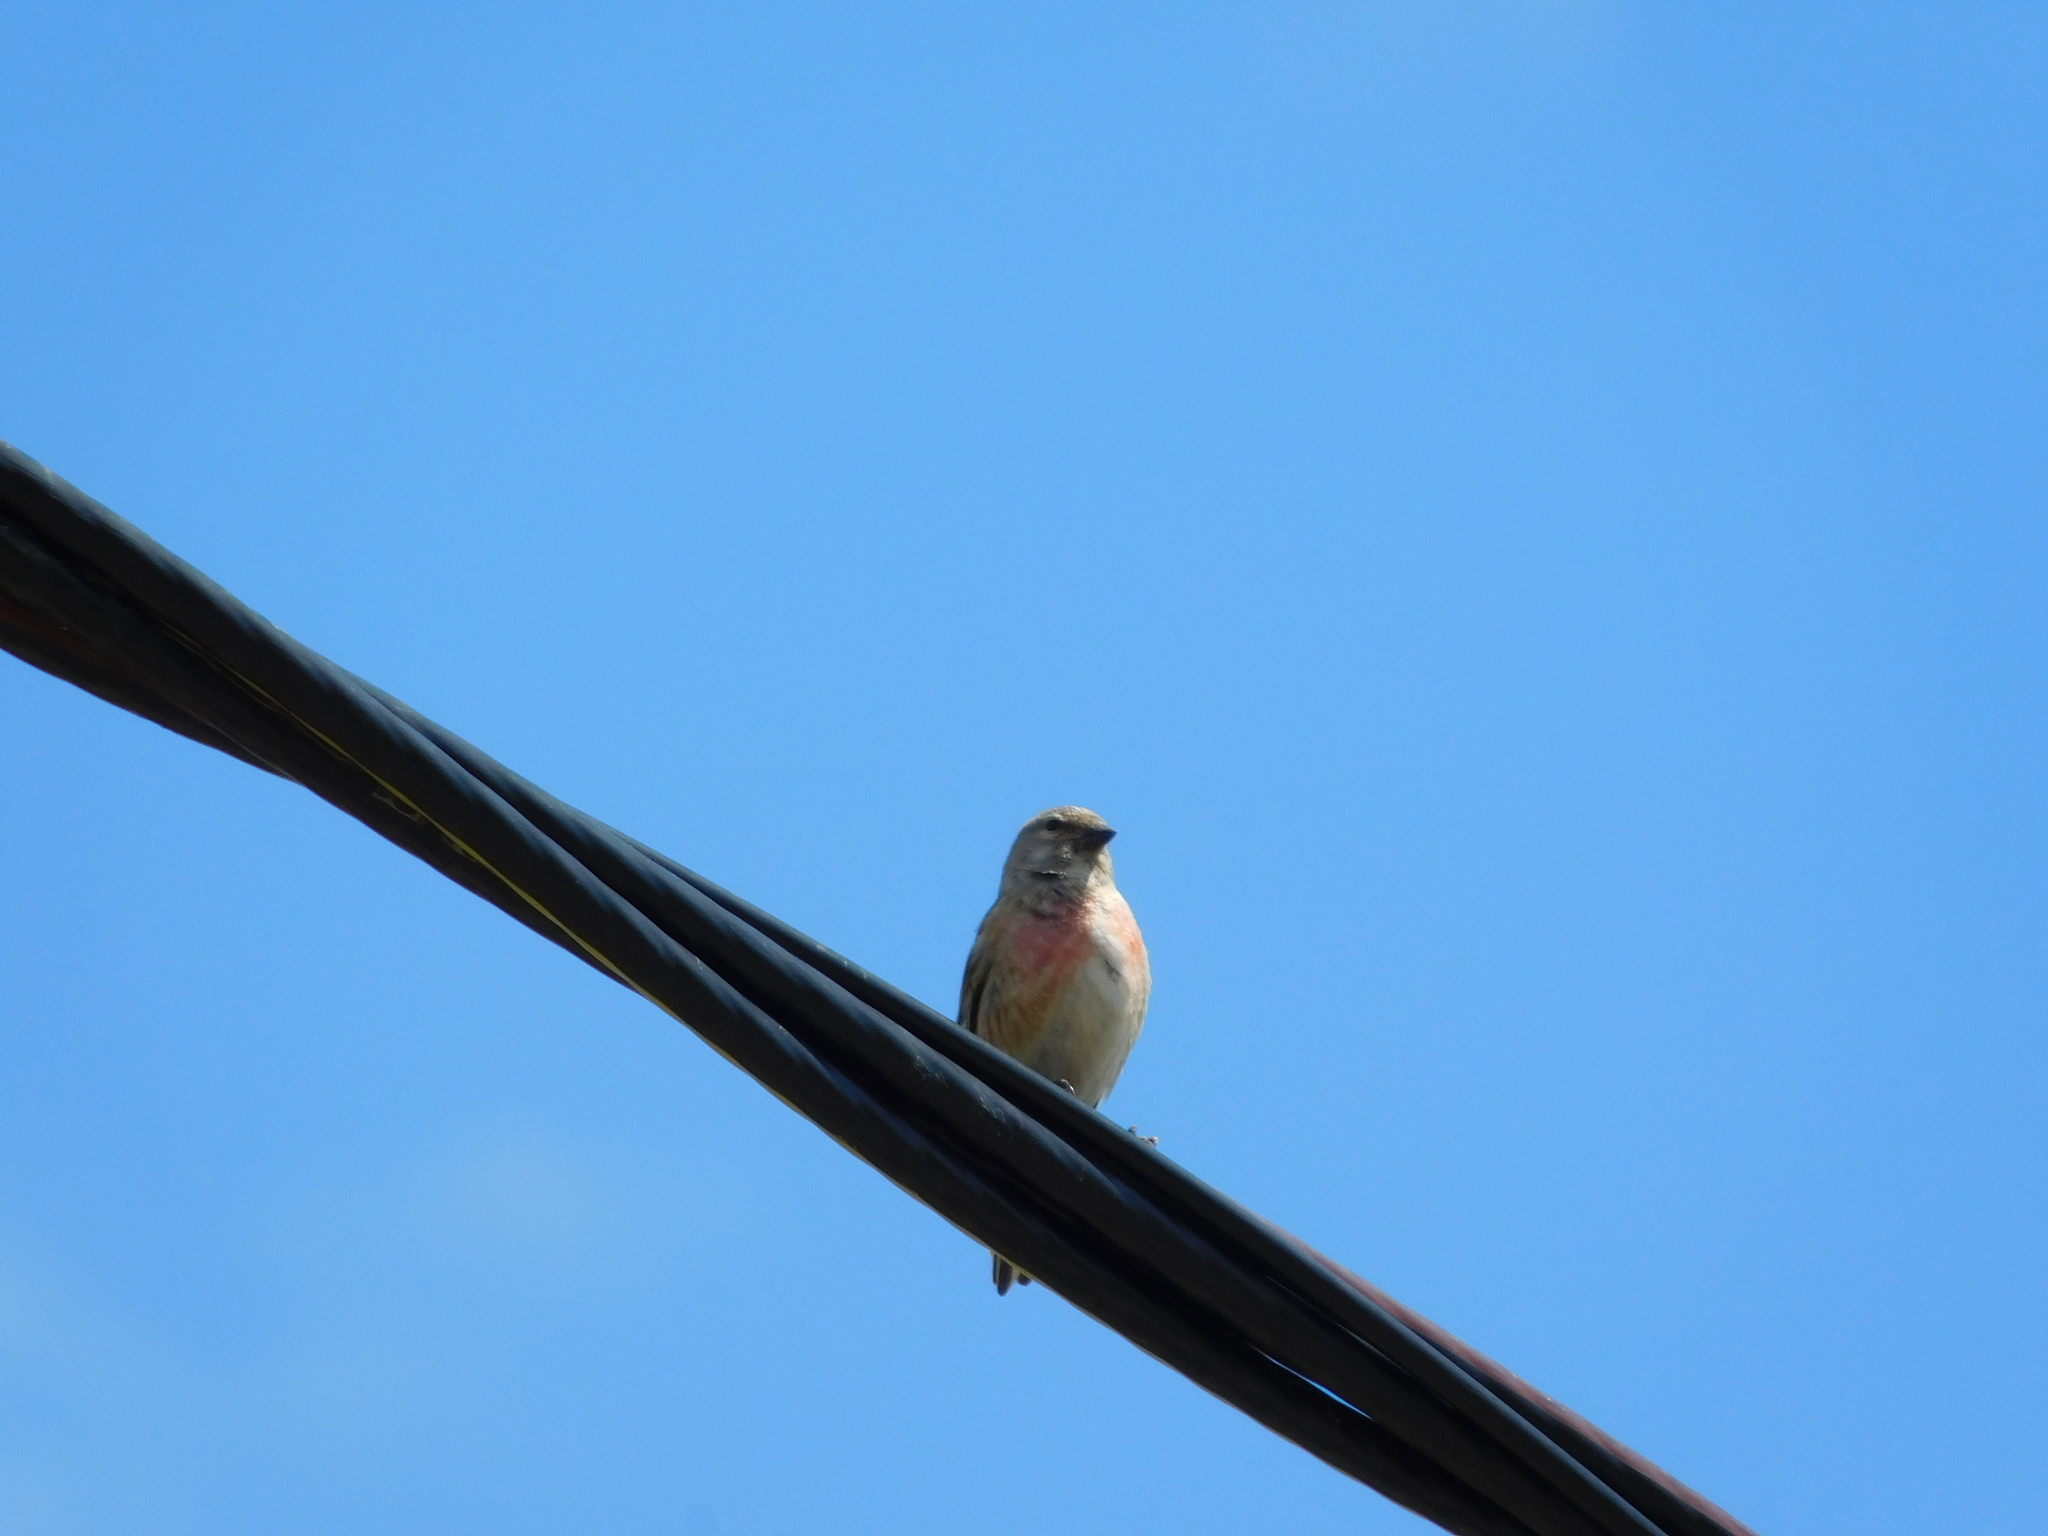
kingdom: Animalia
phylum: Chordata
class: Aves
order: Passeriformes
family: Fringillidae
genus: Linaria
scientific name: Linaria cannabina
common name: Common linnet
